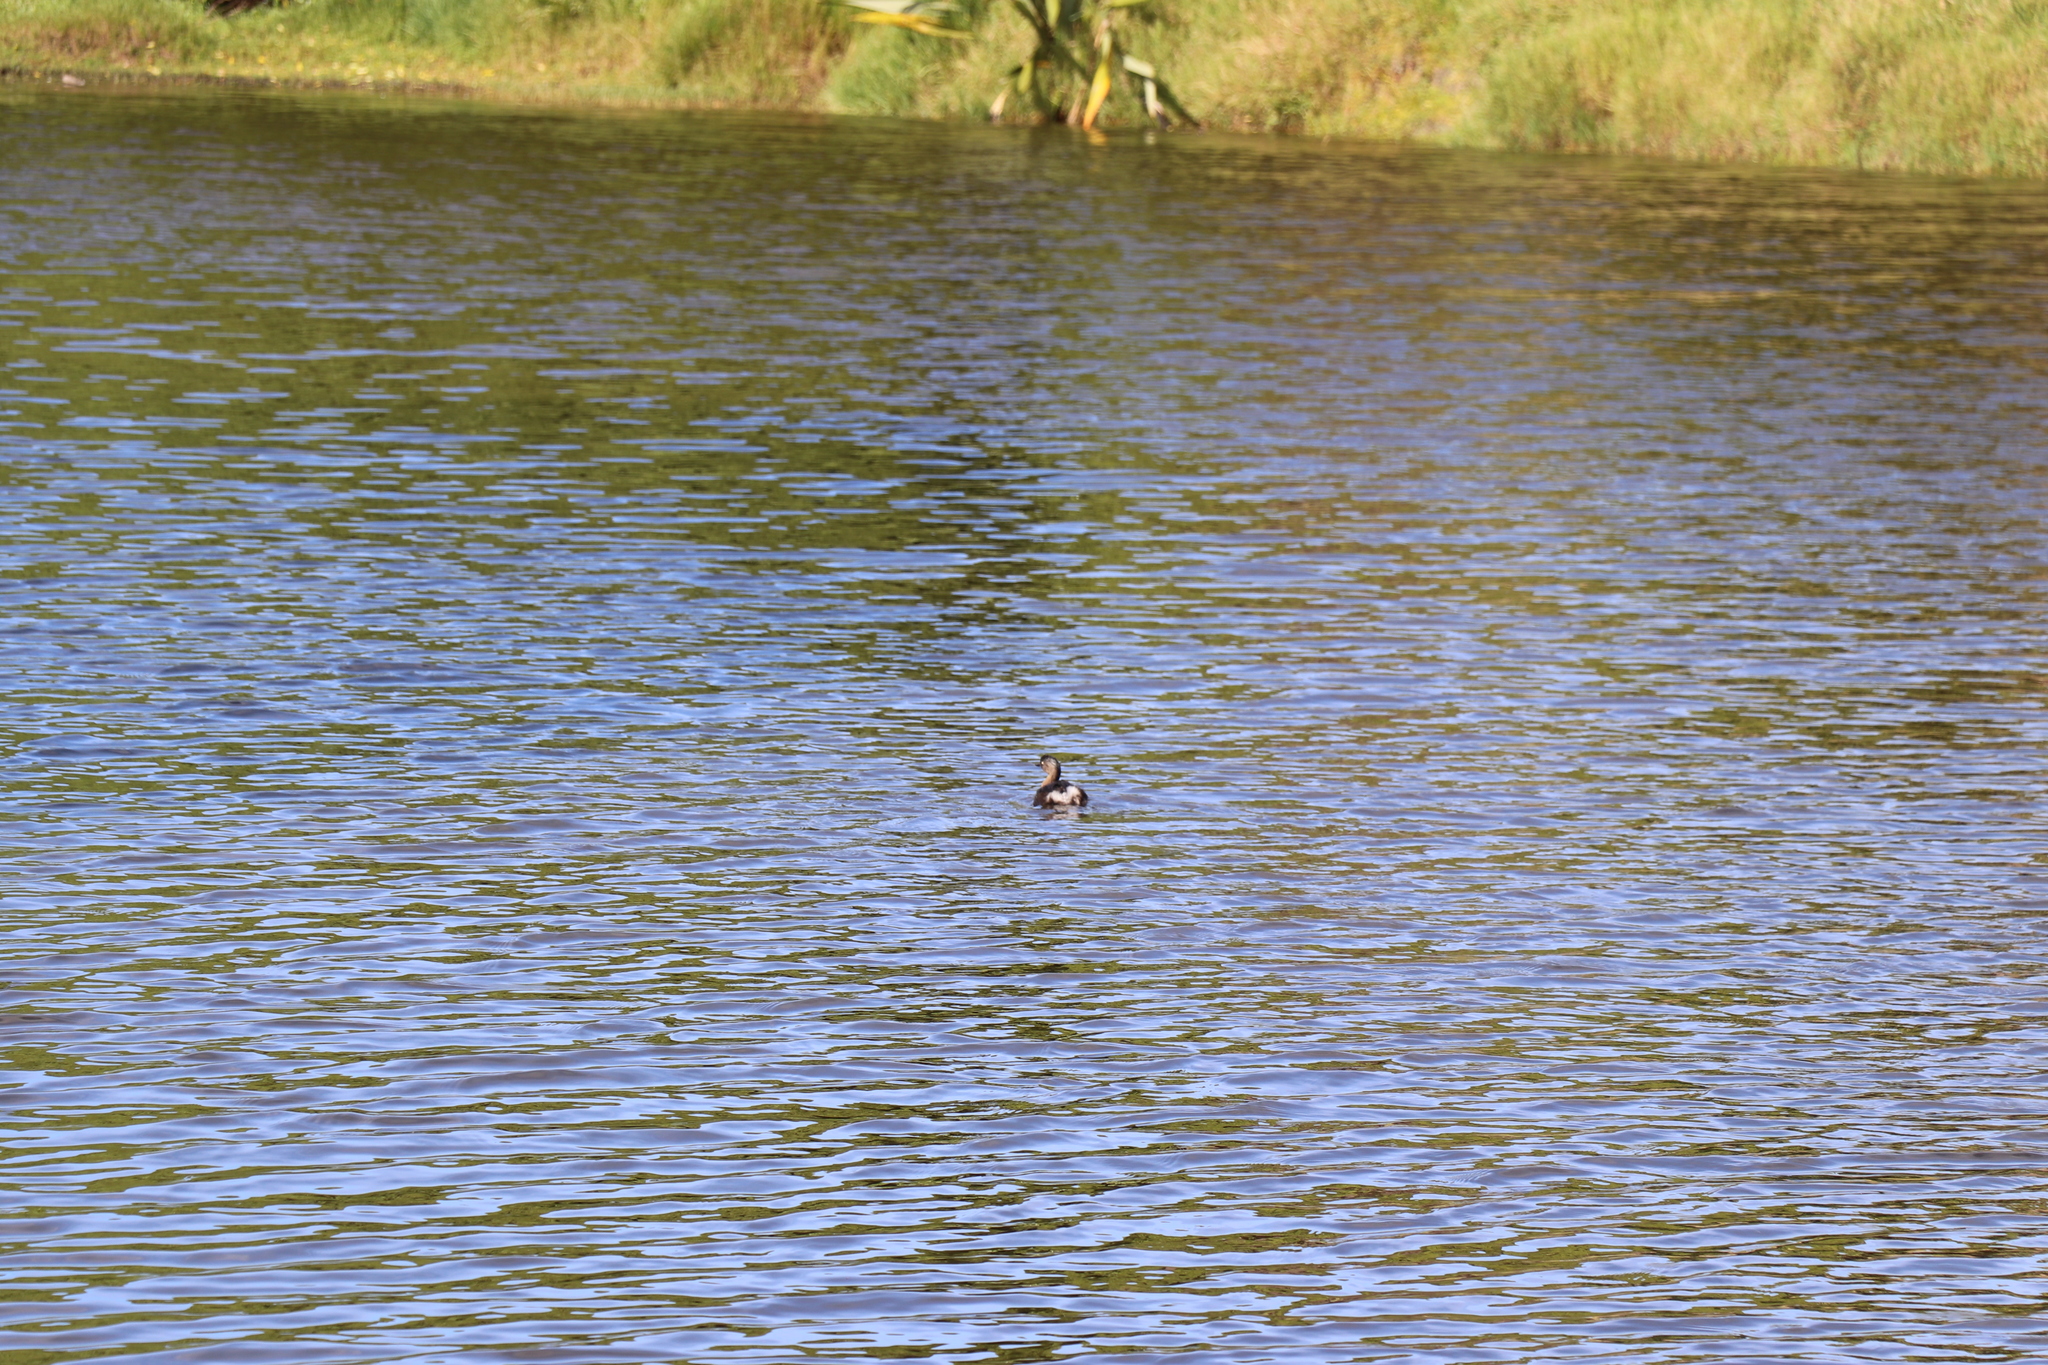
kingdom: Animalia
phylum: Chordata
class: Aves
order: Podicipediformes
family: Podicipedidae
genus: Poliocephalus
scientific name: Poliocephalus rufopectus
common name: New zealand grebe
